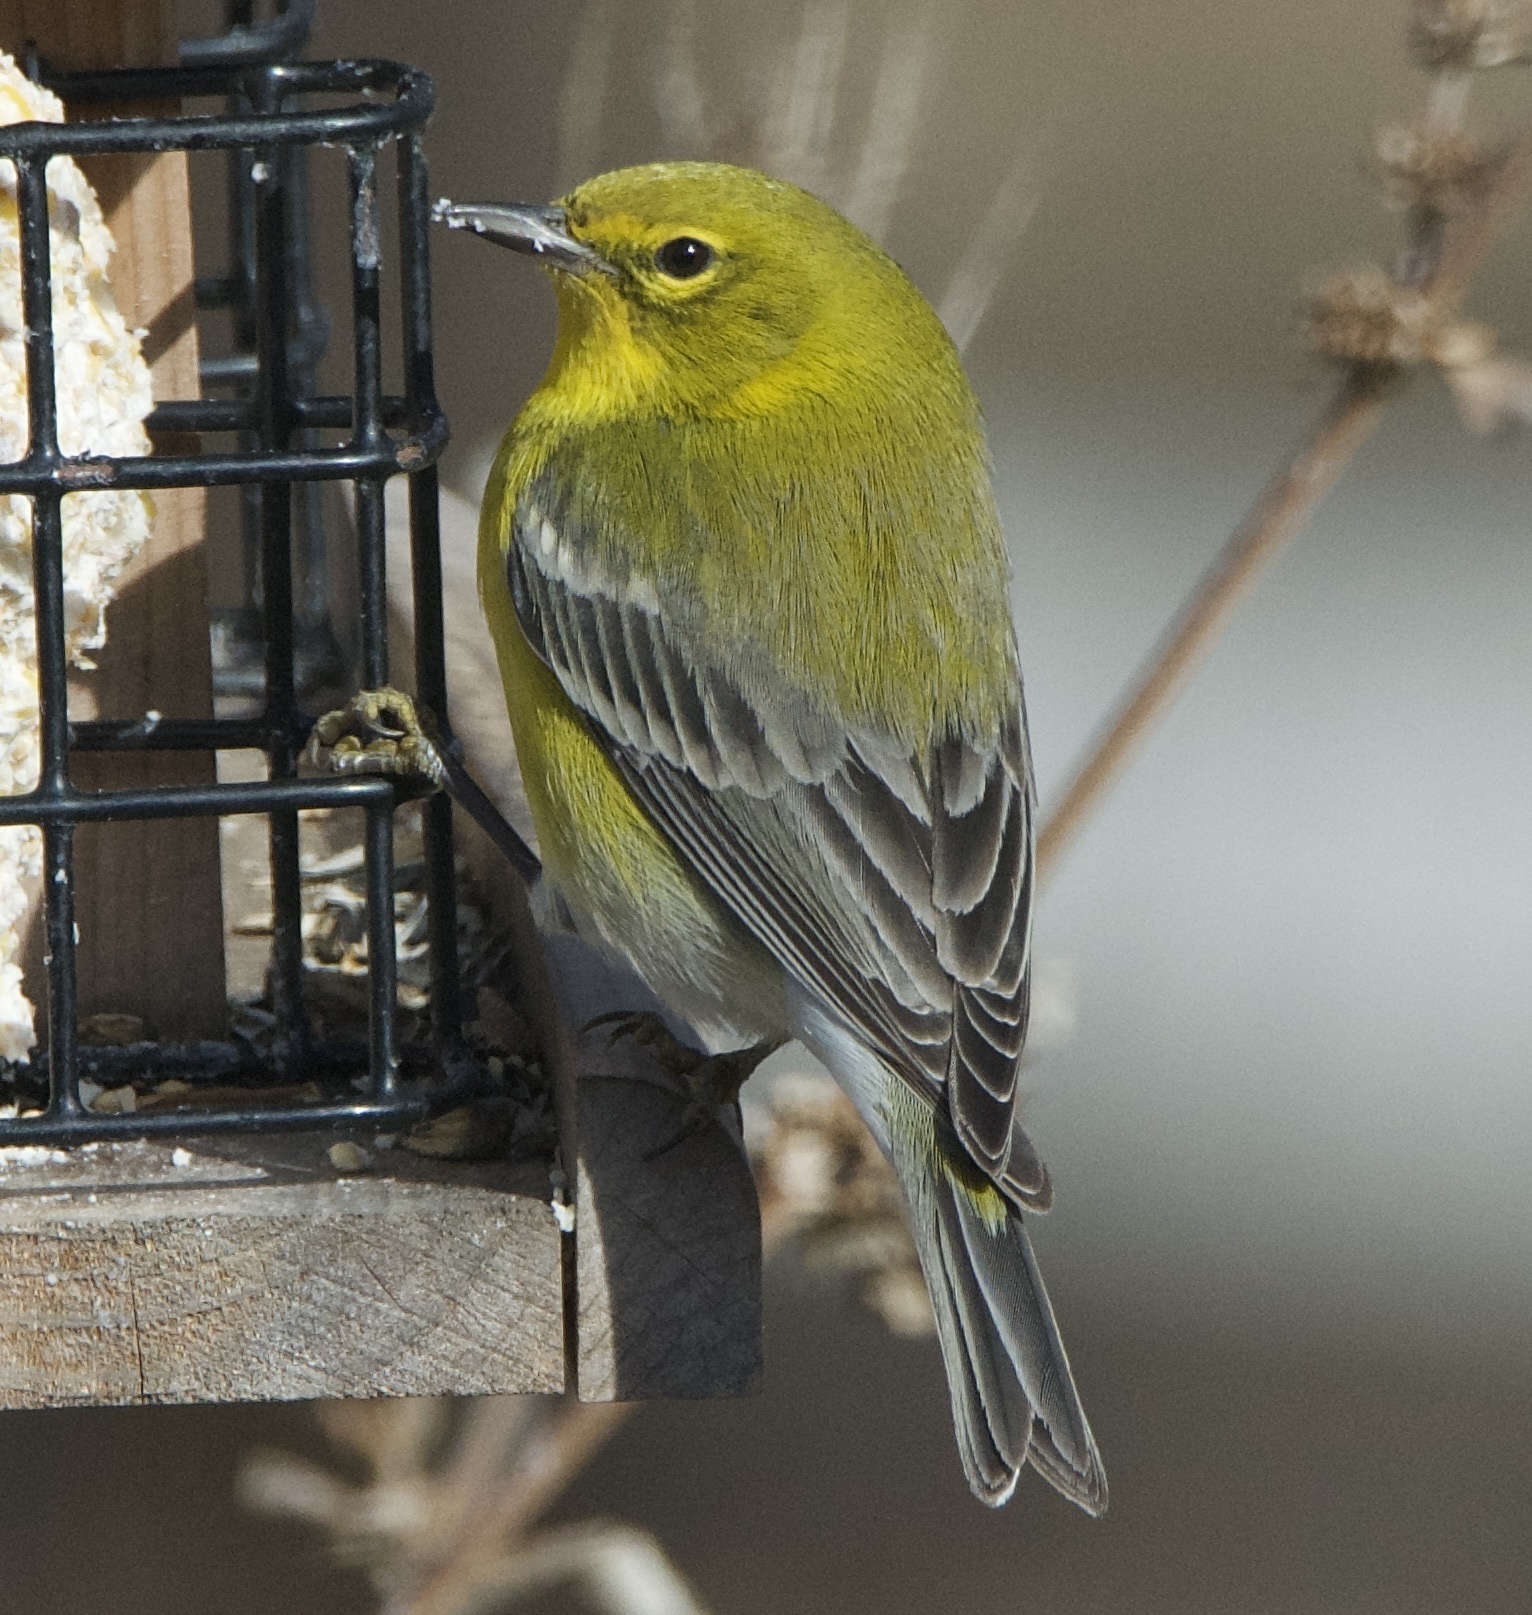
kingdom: Animalia
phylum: Chordata
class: Aves
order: Passeriformes
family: Parulidae
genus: Setophaga
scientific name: Setophaga pinus
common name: Pine warbler
